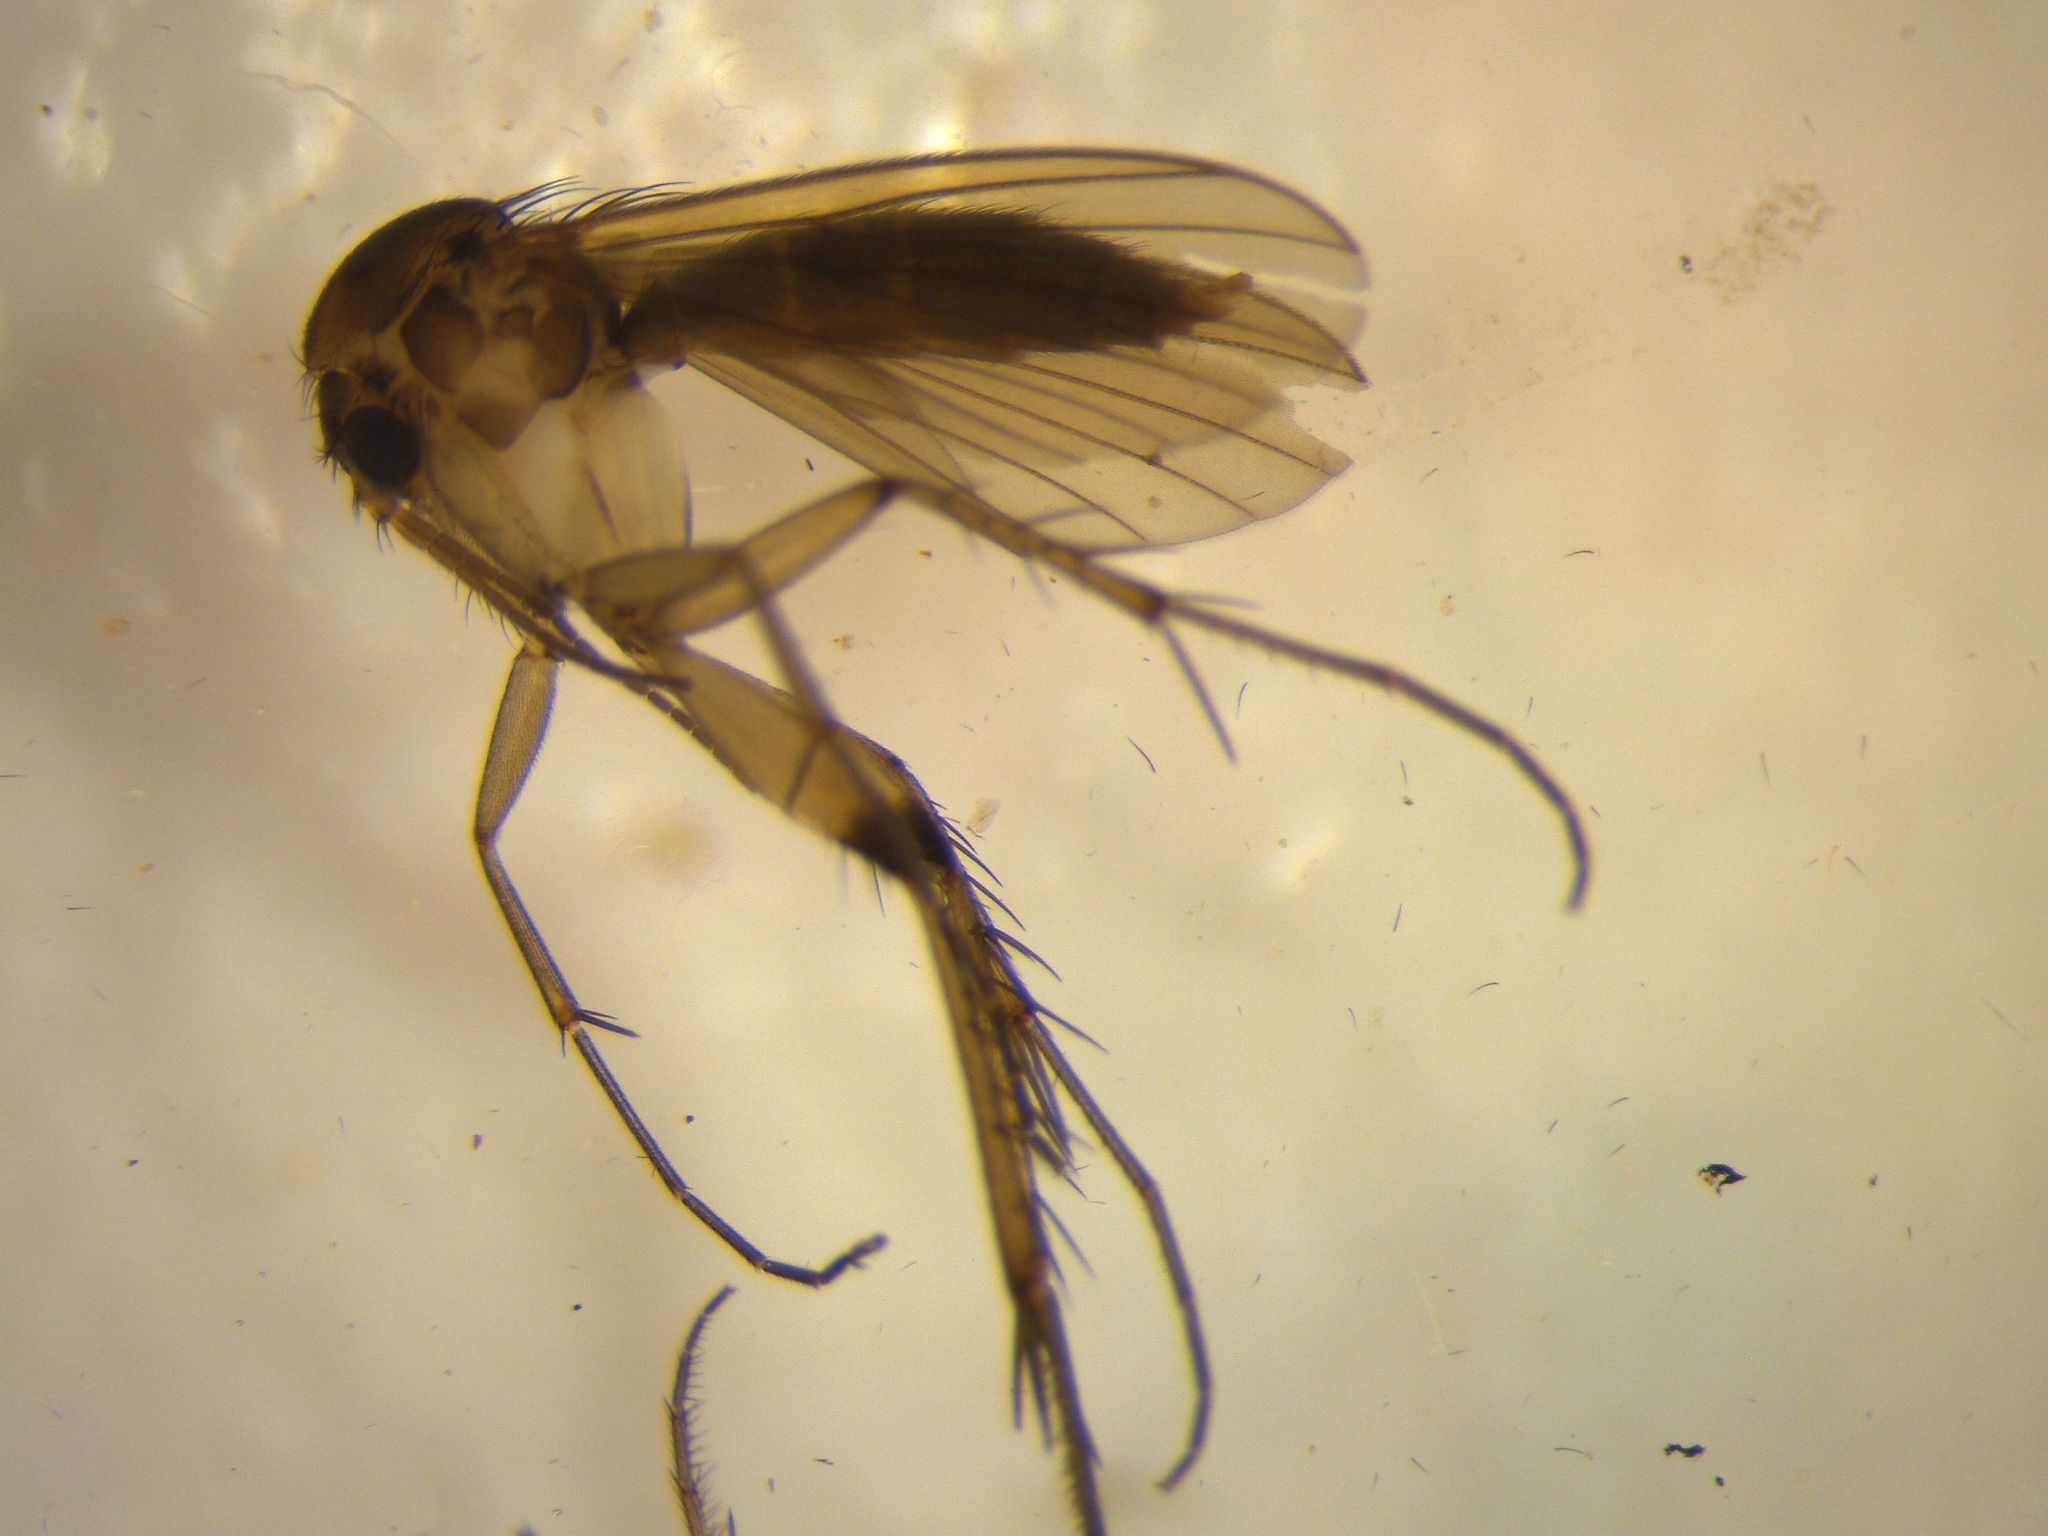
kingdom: Animalia
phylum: Arthropoda
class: Insecta
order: Diptera
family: Mycetophilidae
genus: Mycetophila
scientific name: Mycetophila solitaris
